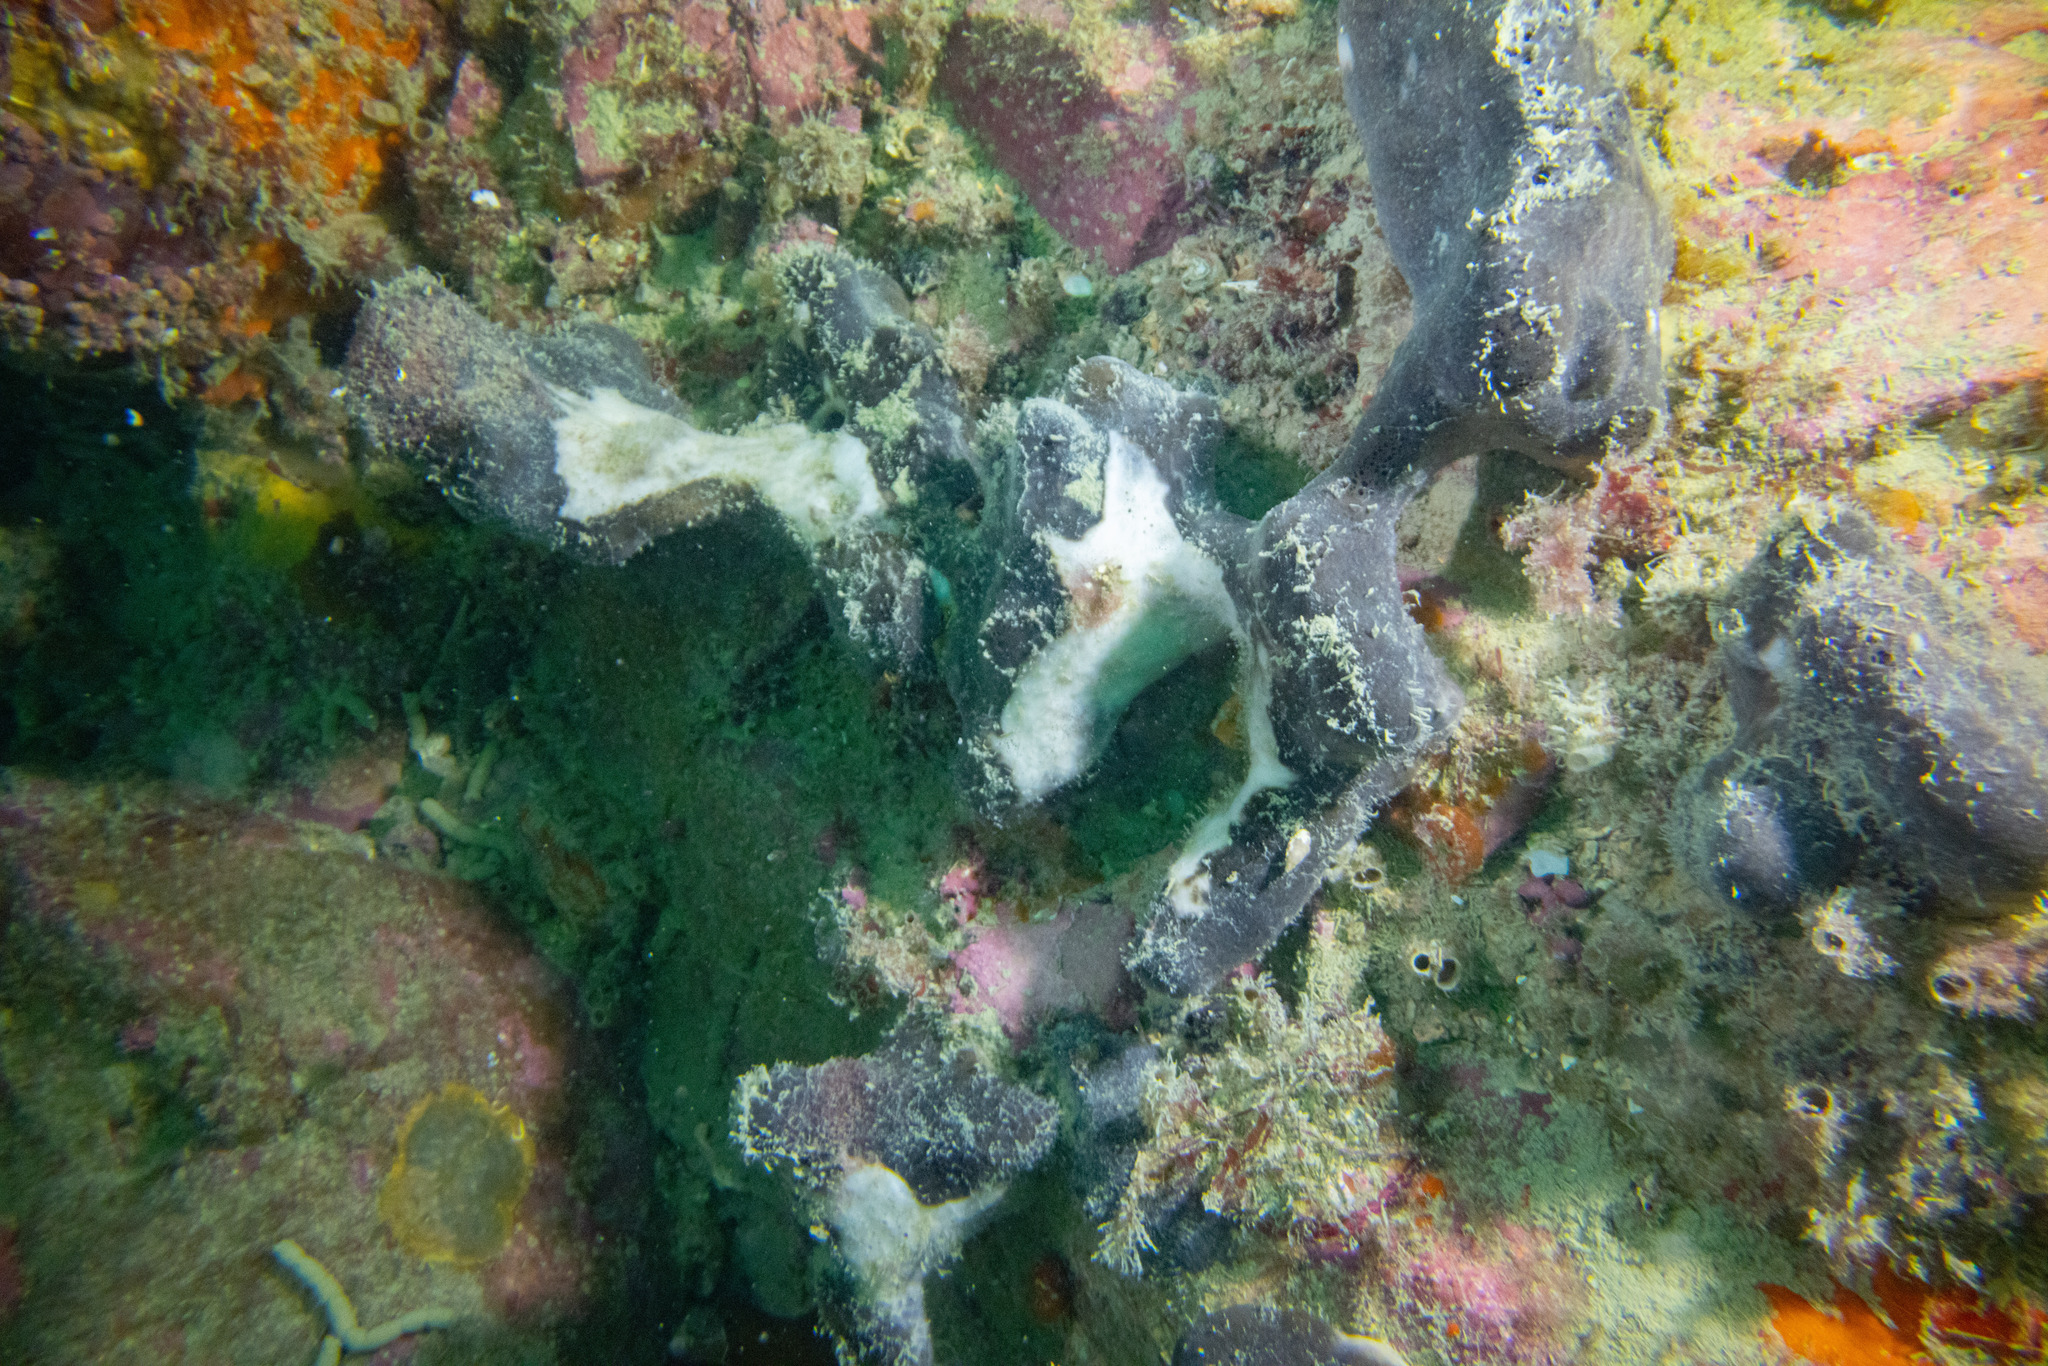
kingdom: Animalia
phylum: Porifera
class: Demospongiae
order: Tetractinellida
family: Ancorinidae
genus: Ecionemia
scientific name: Ecionemia alata
